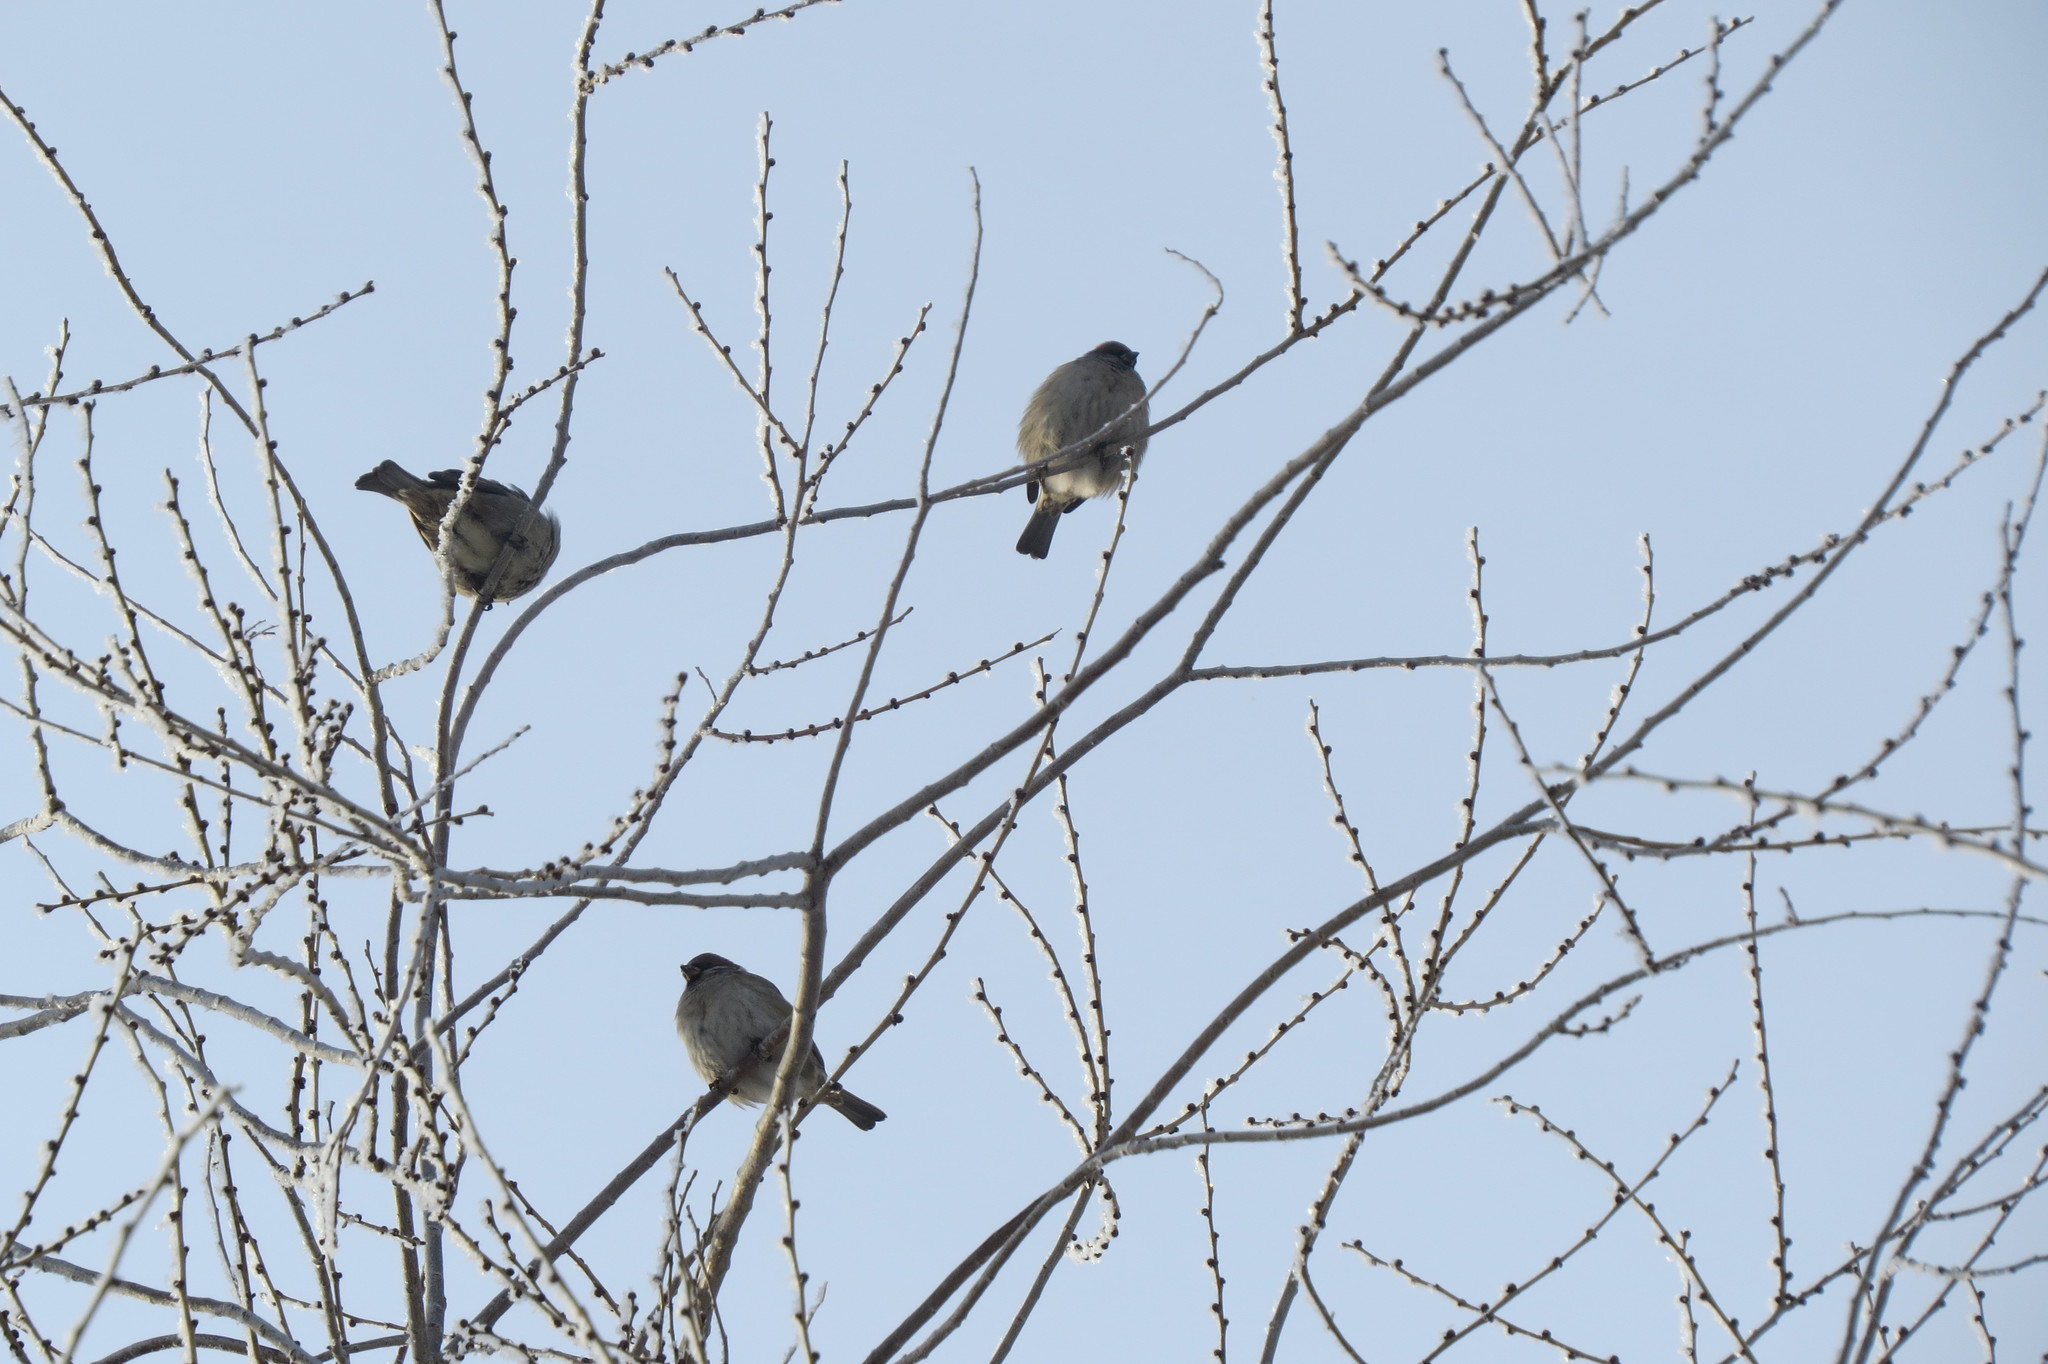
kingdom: Animalia
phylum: Chordata
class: Aves
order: Passeriformes
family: Passeridae
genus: Passer
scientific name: Passer montanus
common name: Eurasian tree sparrow
